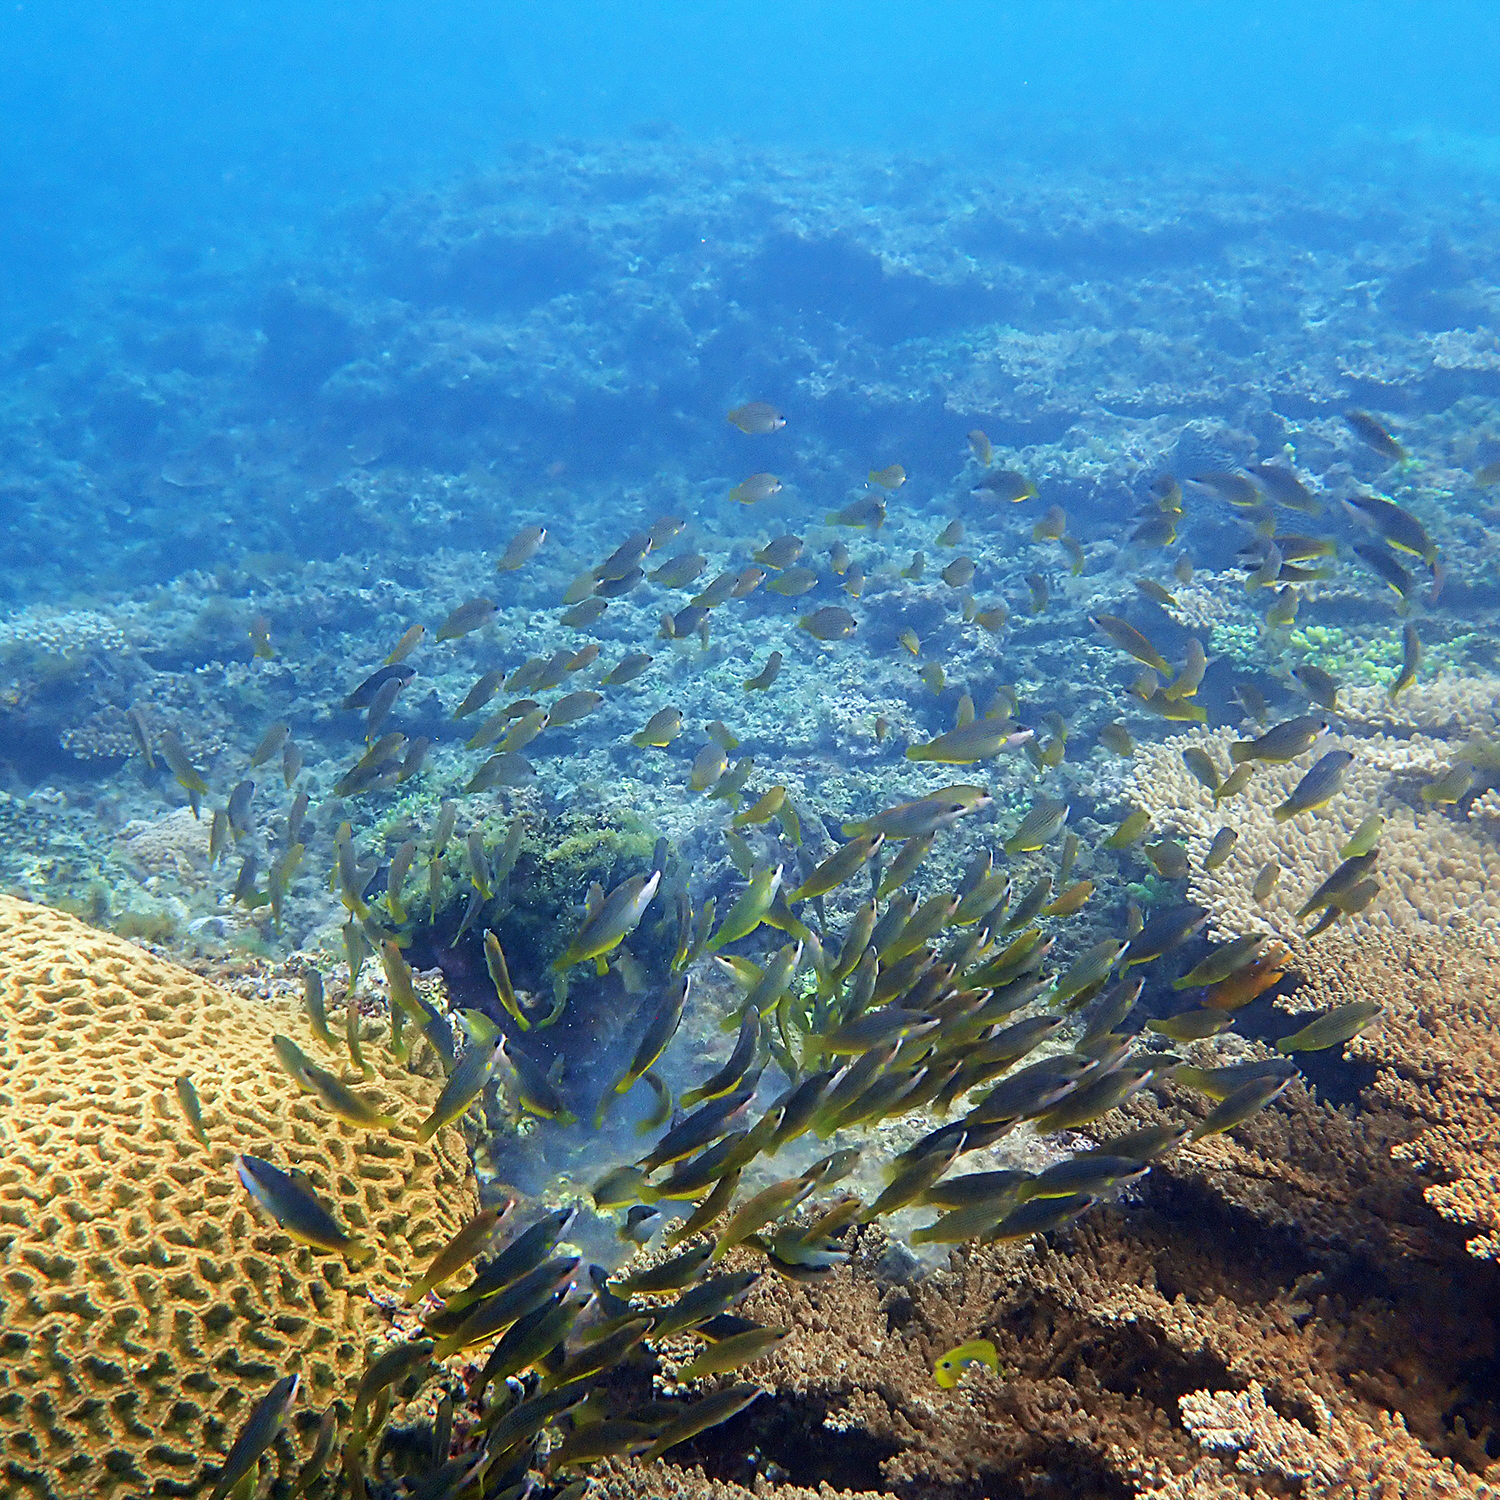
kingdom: Animalia
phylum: Chordata
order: Perciformes
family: Labridae
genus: Anampses
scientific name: Anampses elegans
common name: Elegant wrasse
